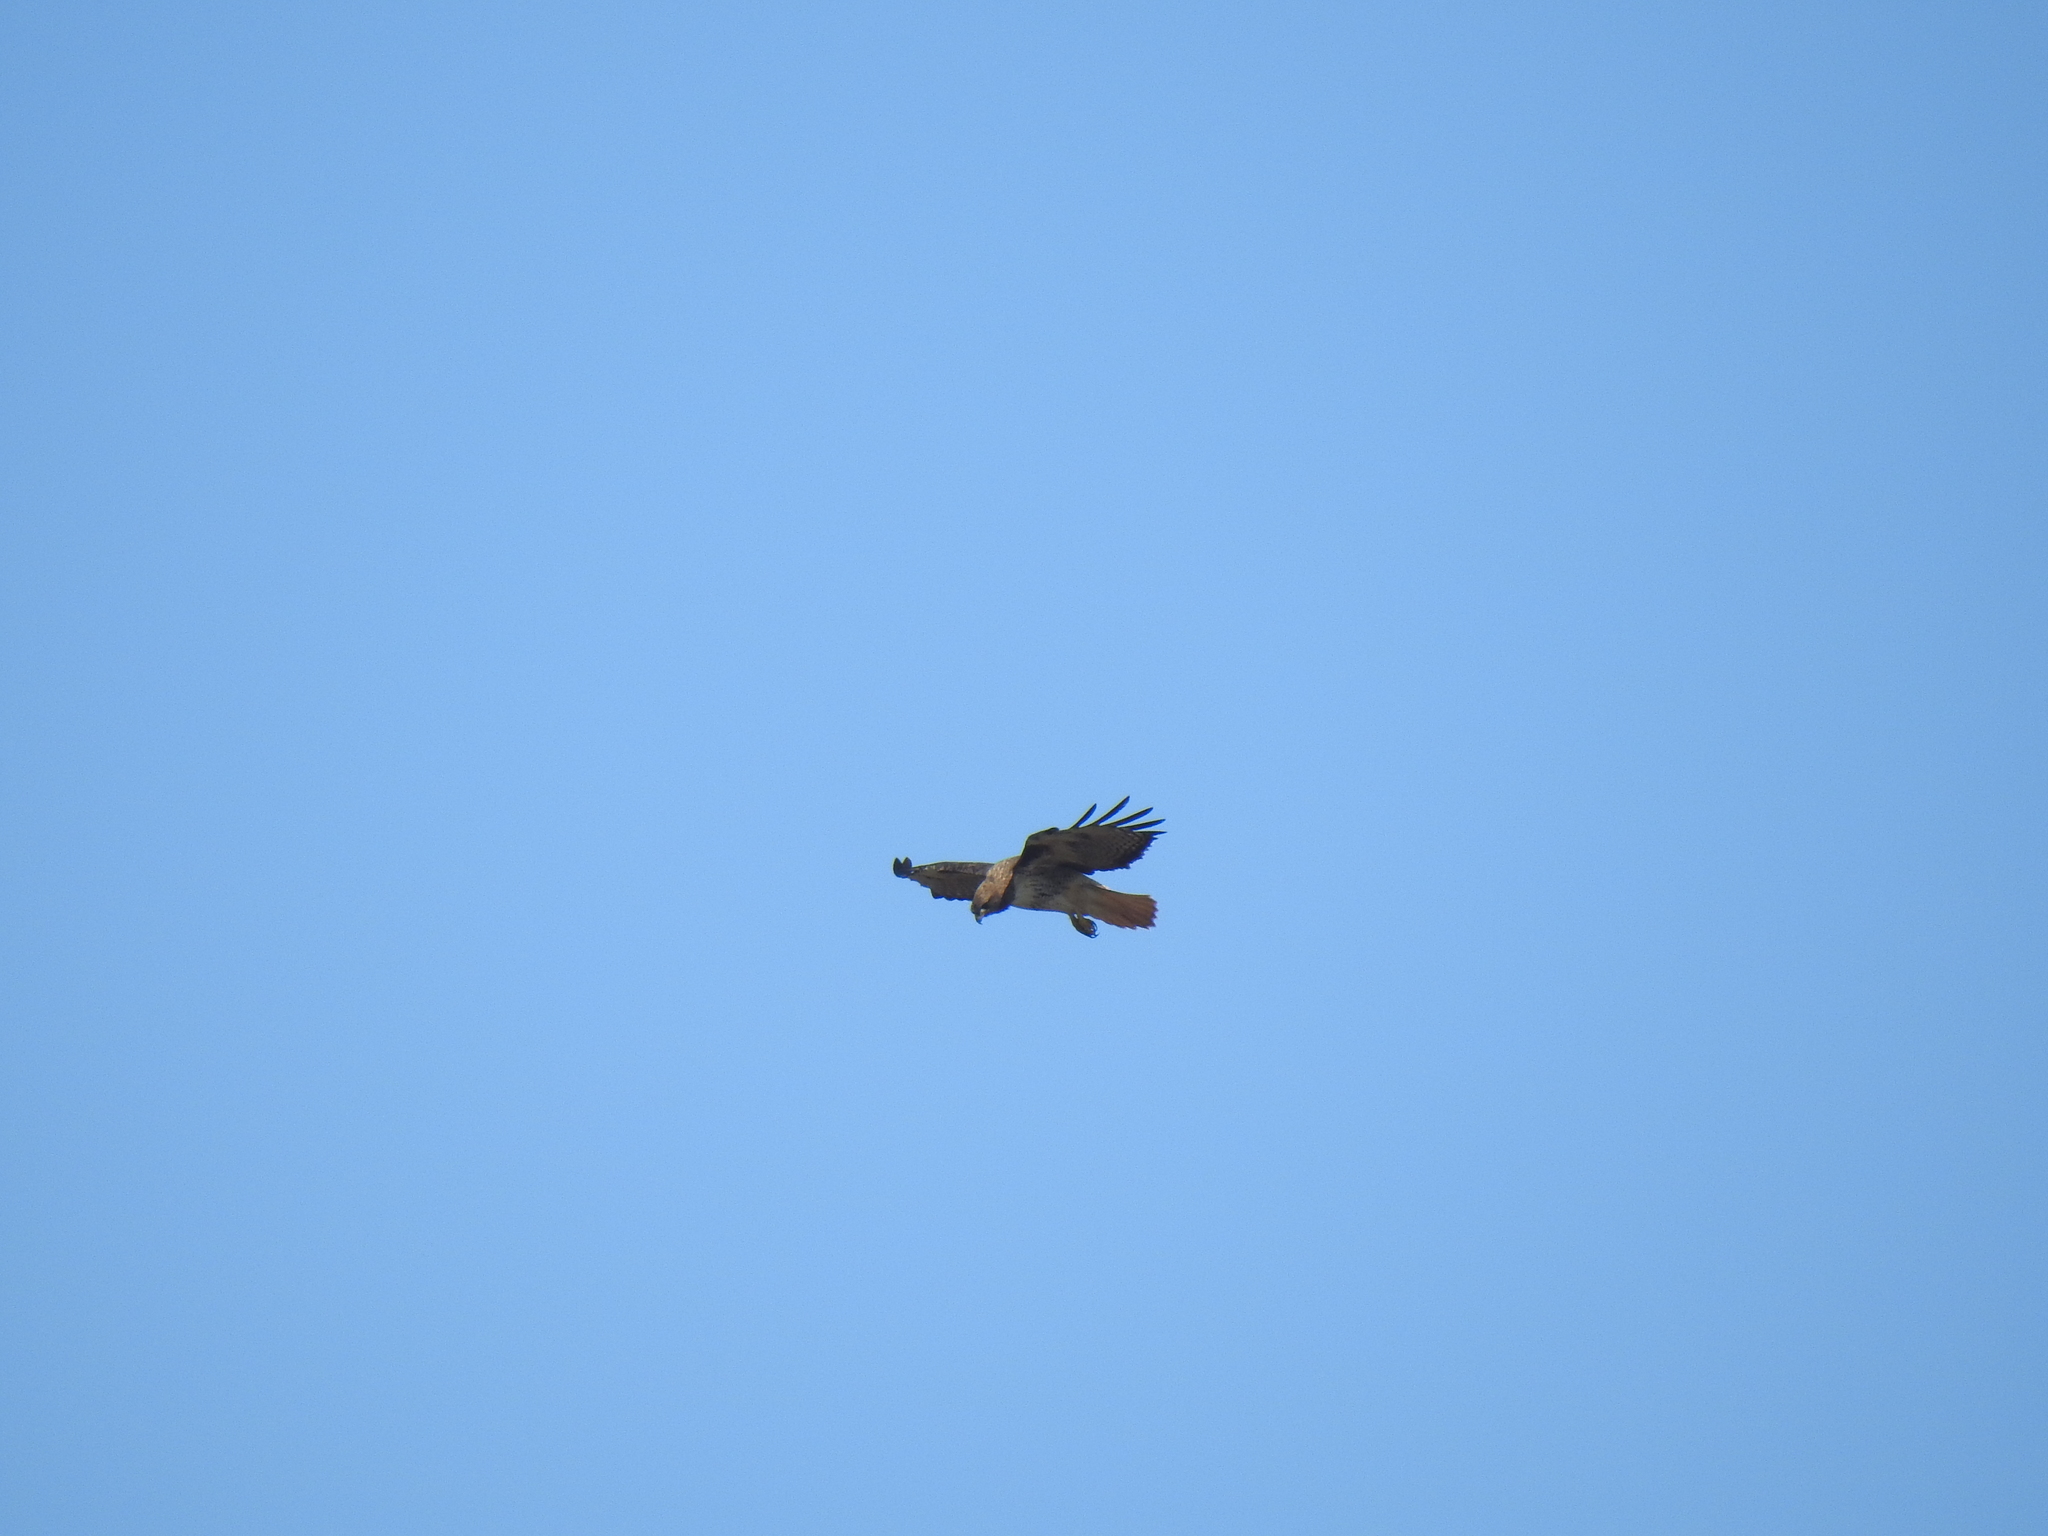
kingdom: Animalia
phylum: Chordata
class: Aves
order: Accipitriformes
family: Accipitridae
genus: Buteo
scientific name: Buteo jamaicensis
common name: Red-tailed hawk
